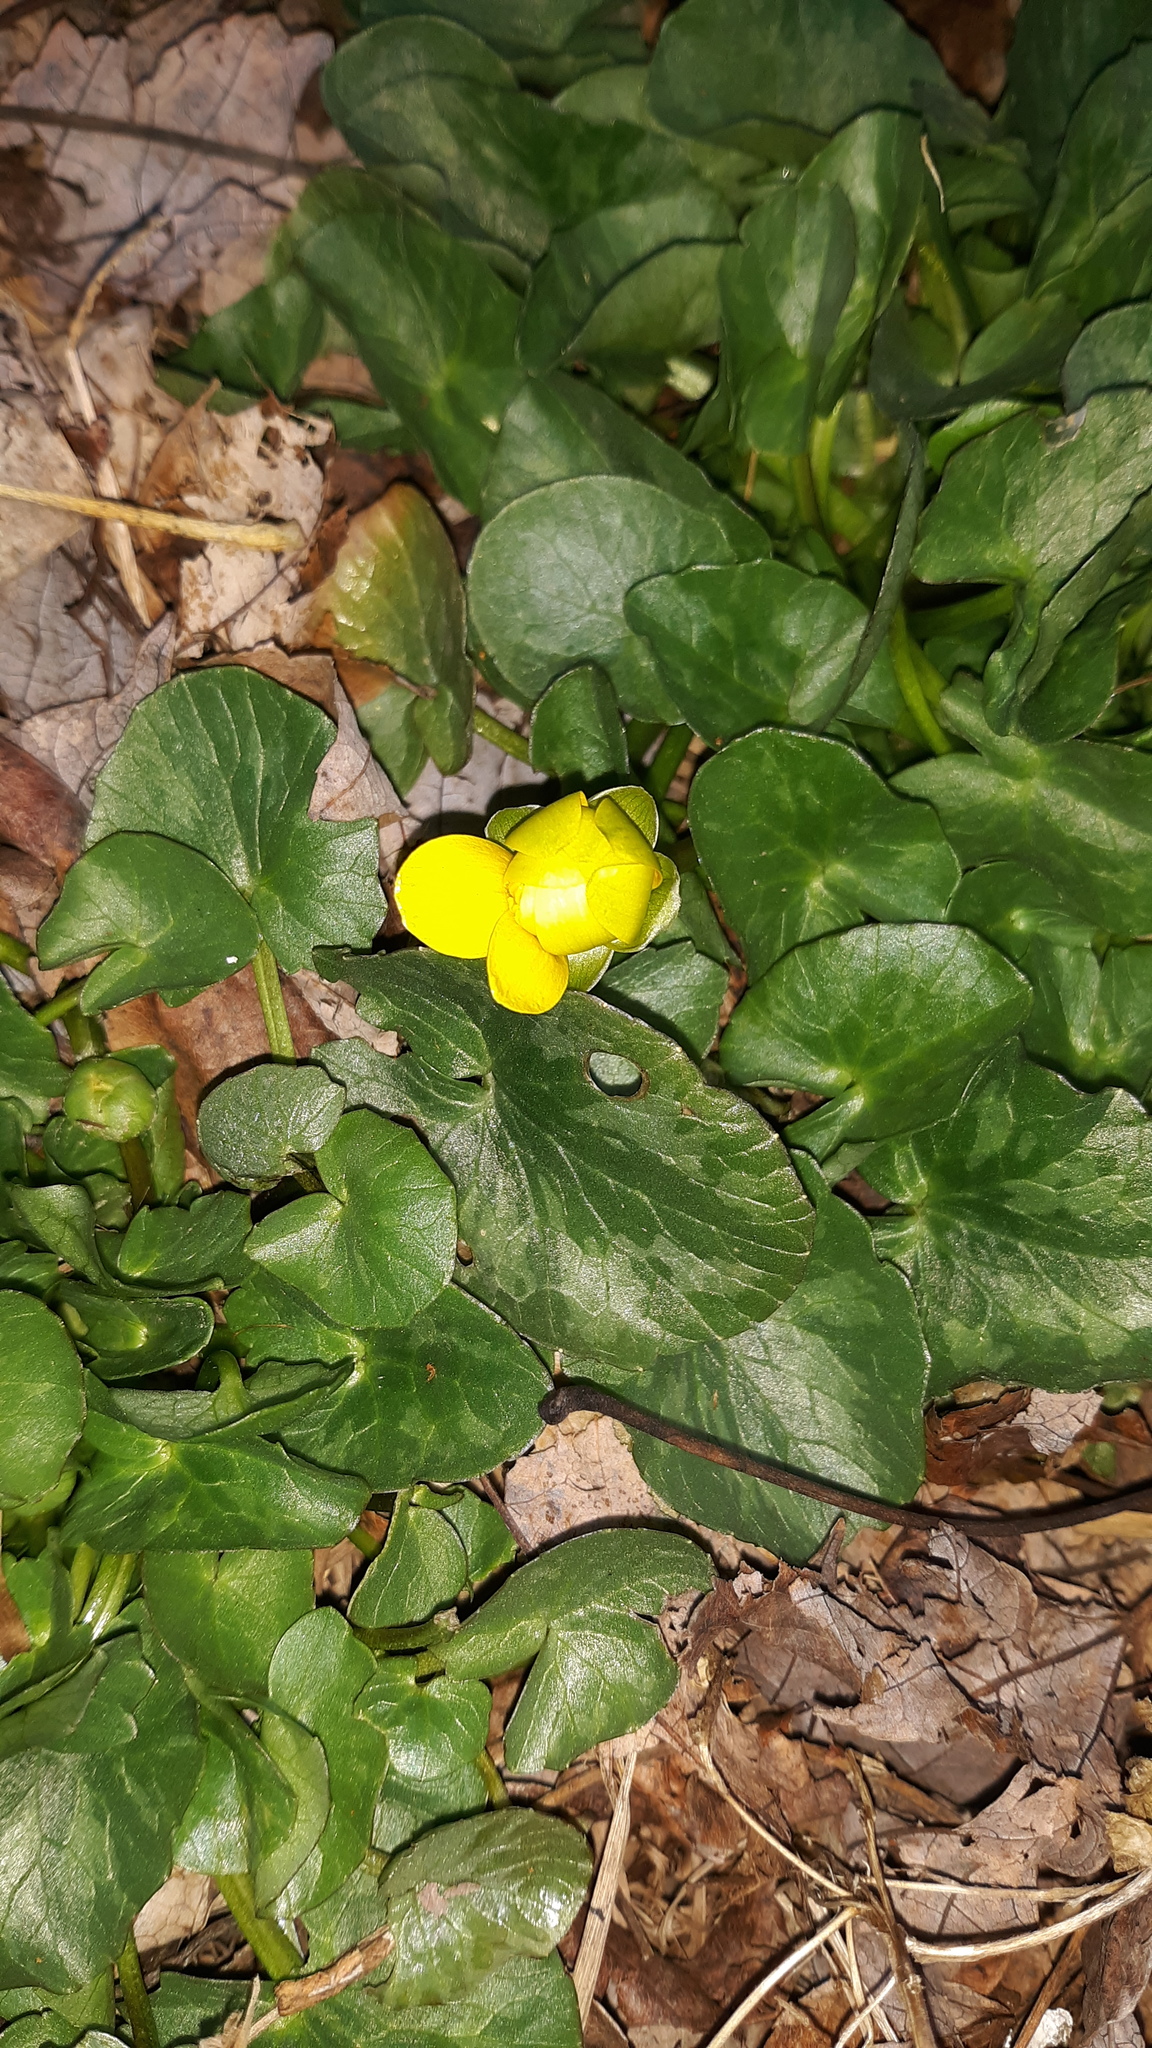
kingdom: Plantae
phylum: Tracheophyta
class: Magnoliopsida
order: Ranunculales
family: Ranunculaceae
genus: Ficaria
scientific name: Ficaria verna
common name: Lesser celandine
